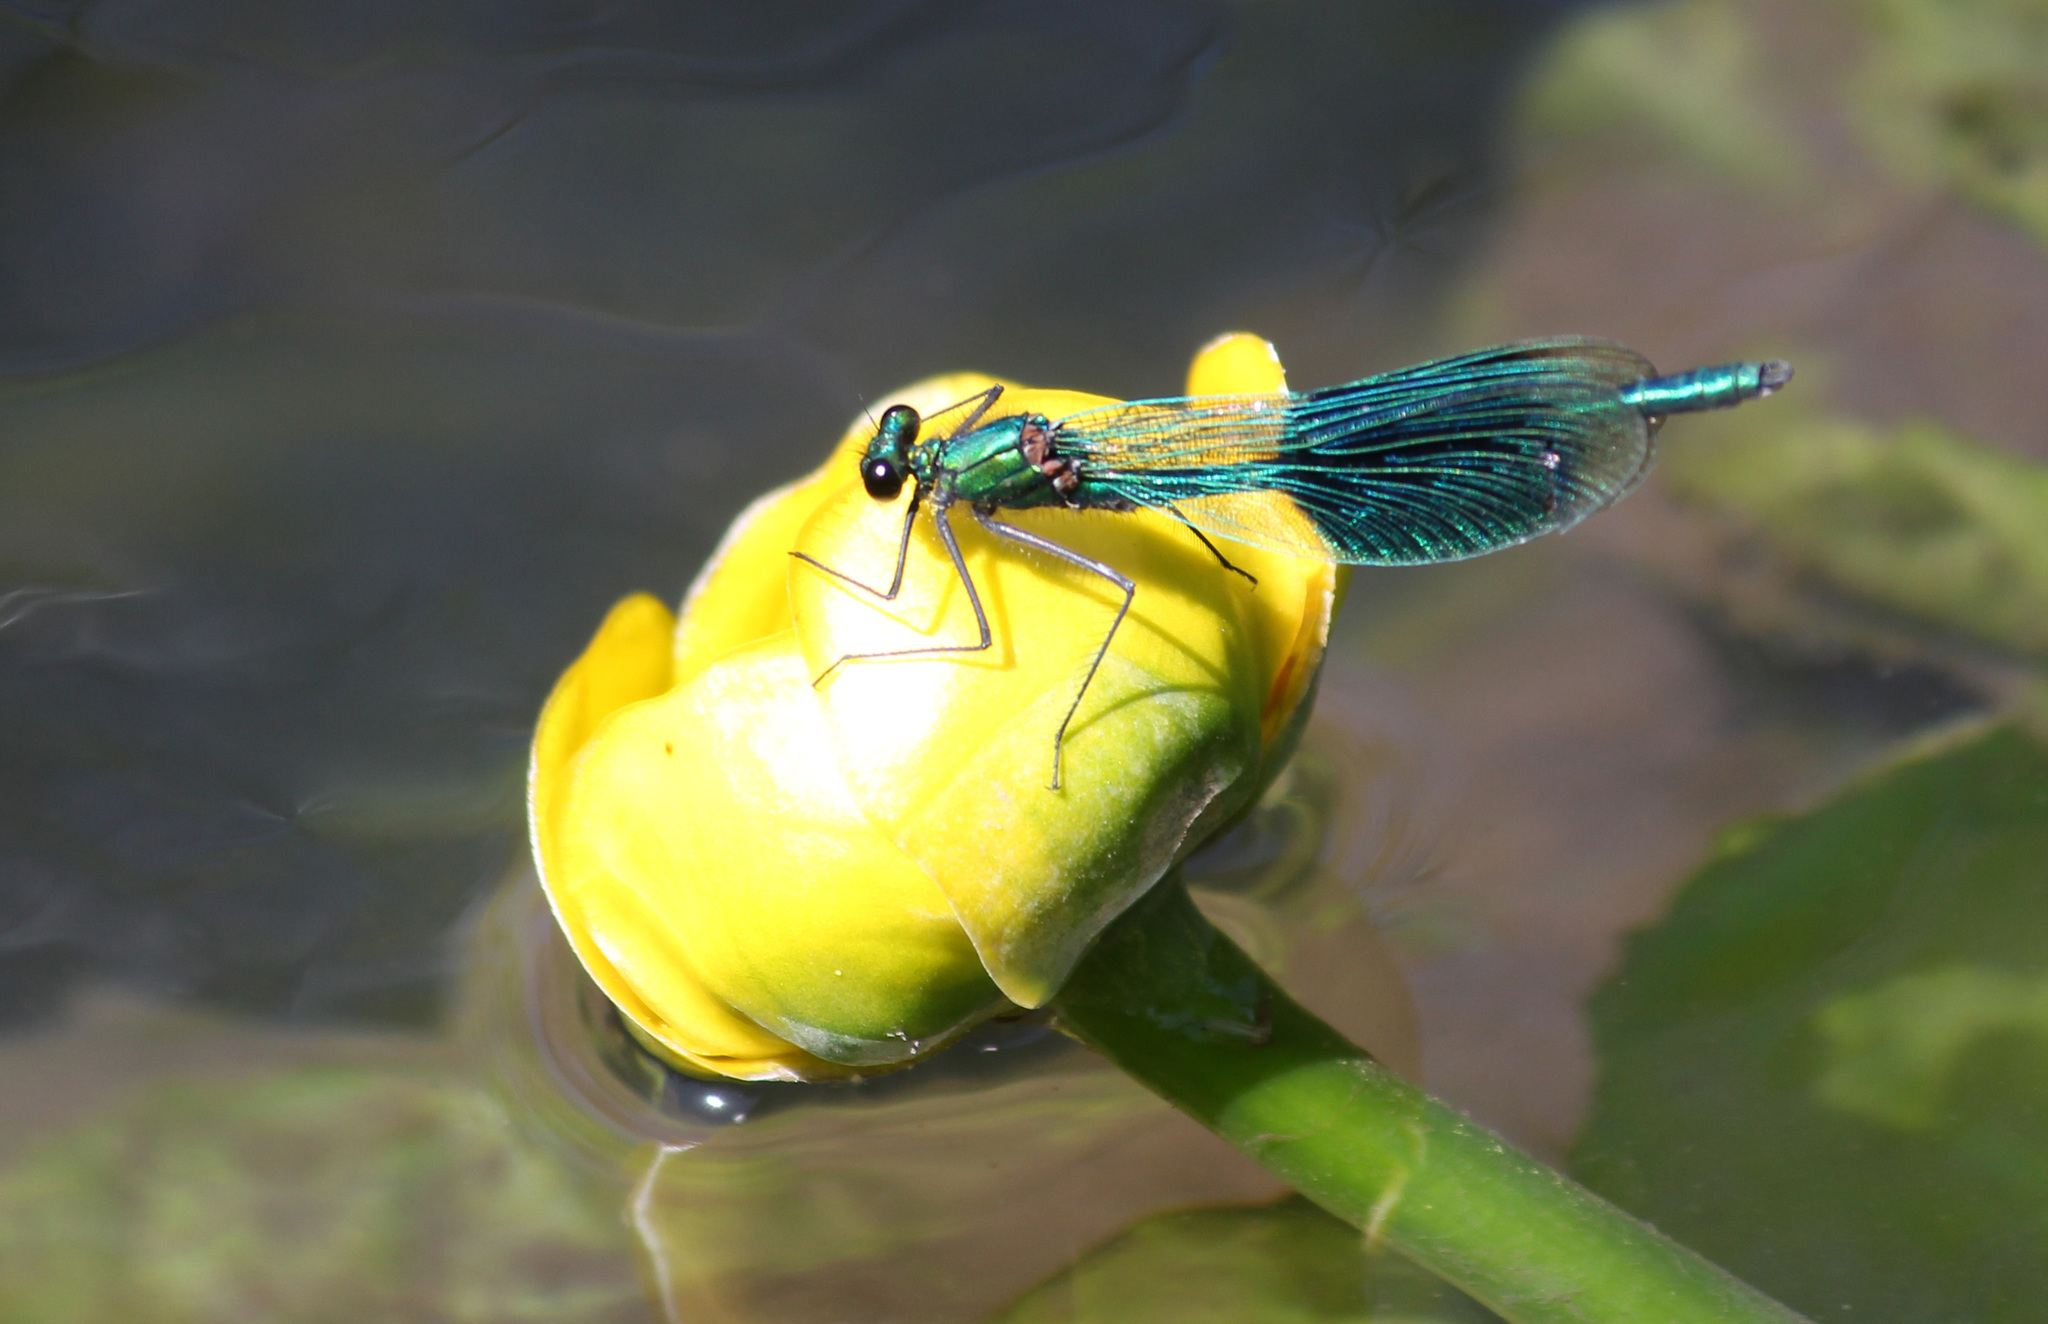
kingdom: Animalia
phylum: Arthropoda
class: Insecta
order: Odonata
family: Calopterygidae
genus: Calopteryx
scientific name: Calopteryx splendens
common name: Banded demoiselle
